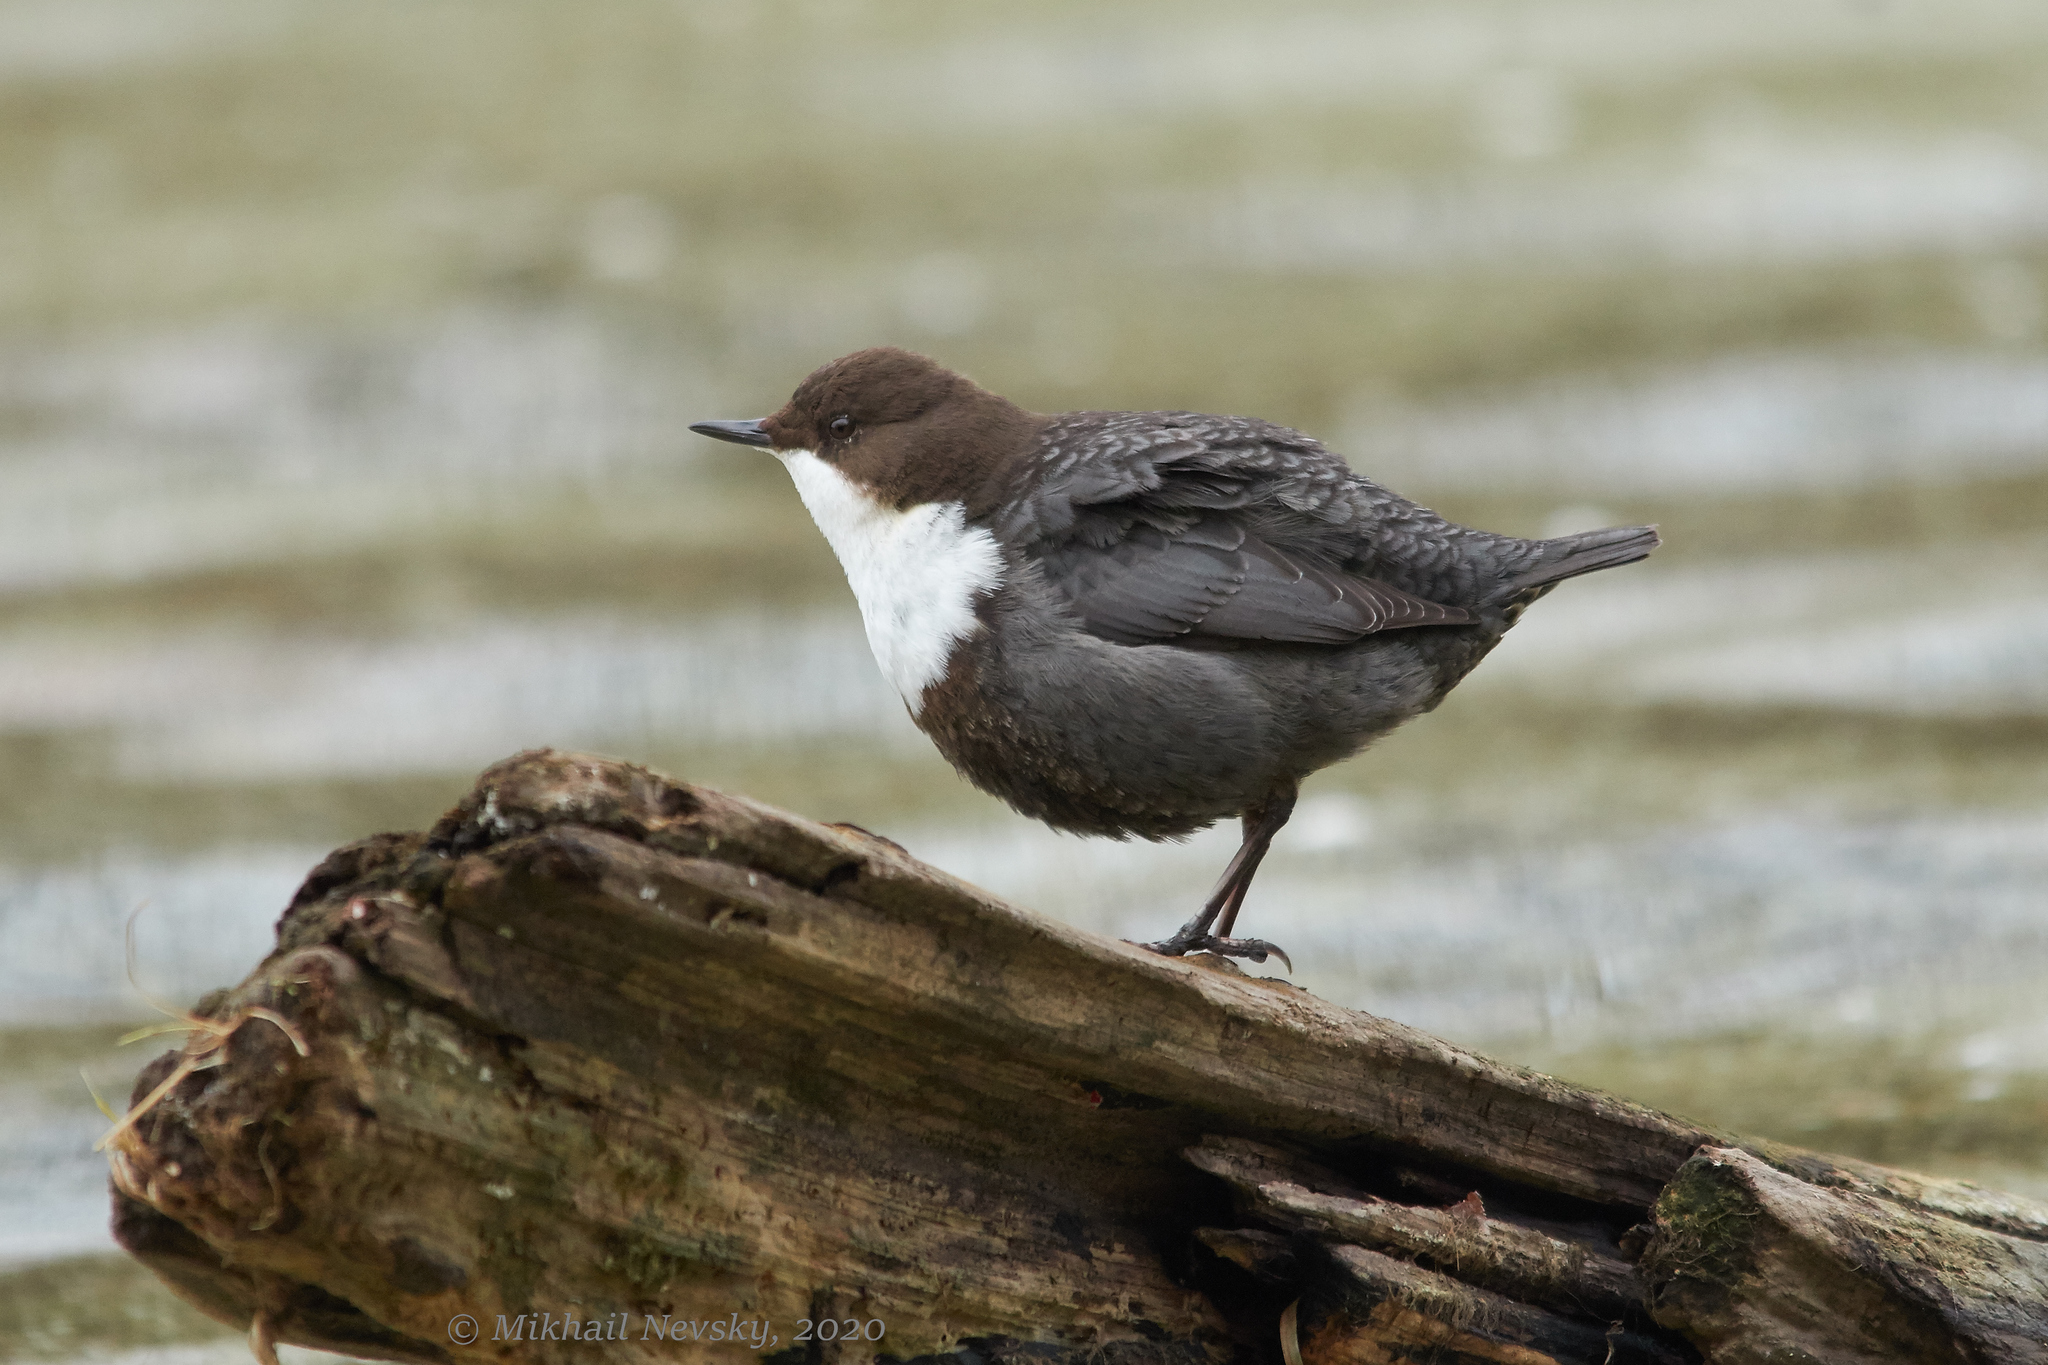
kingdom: Animalia
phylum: Chordata
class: Aves
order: Passeriformes
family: Cinclidae
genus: Cinclus
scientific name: Cinclus cinclus
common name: White-throated dipper
